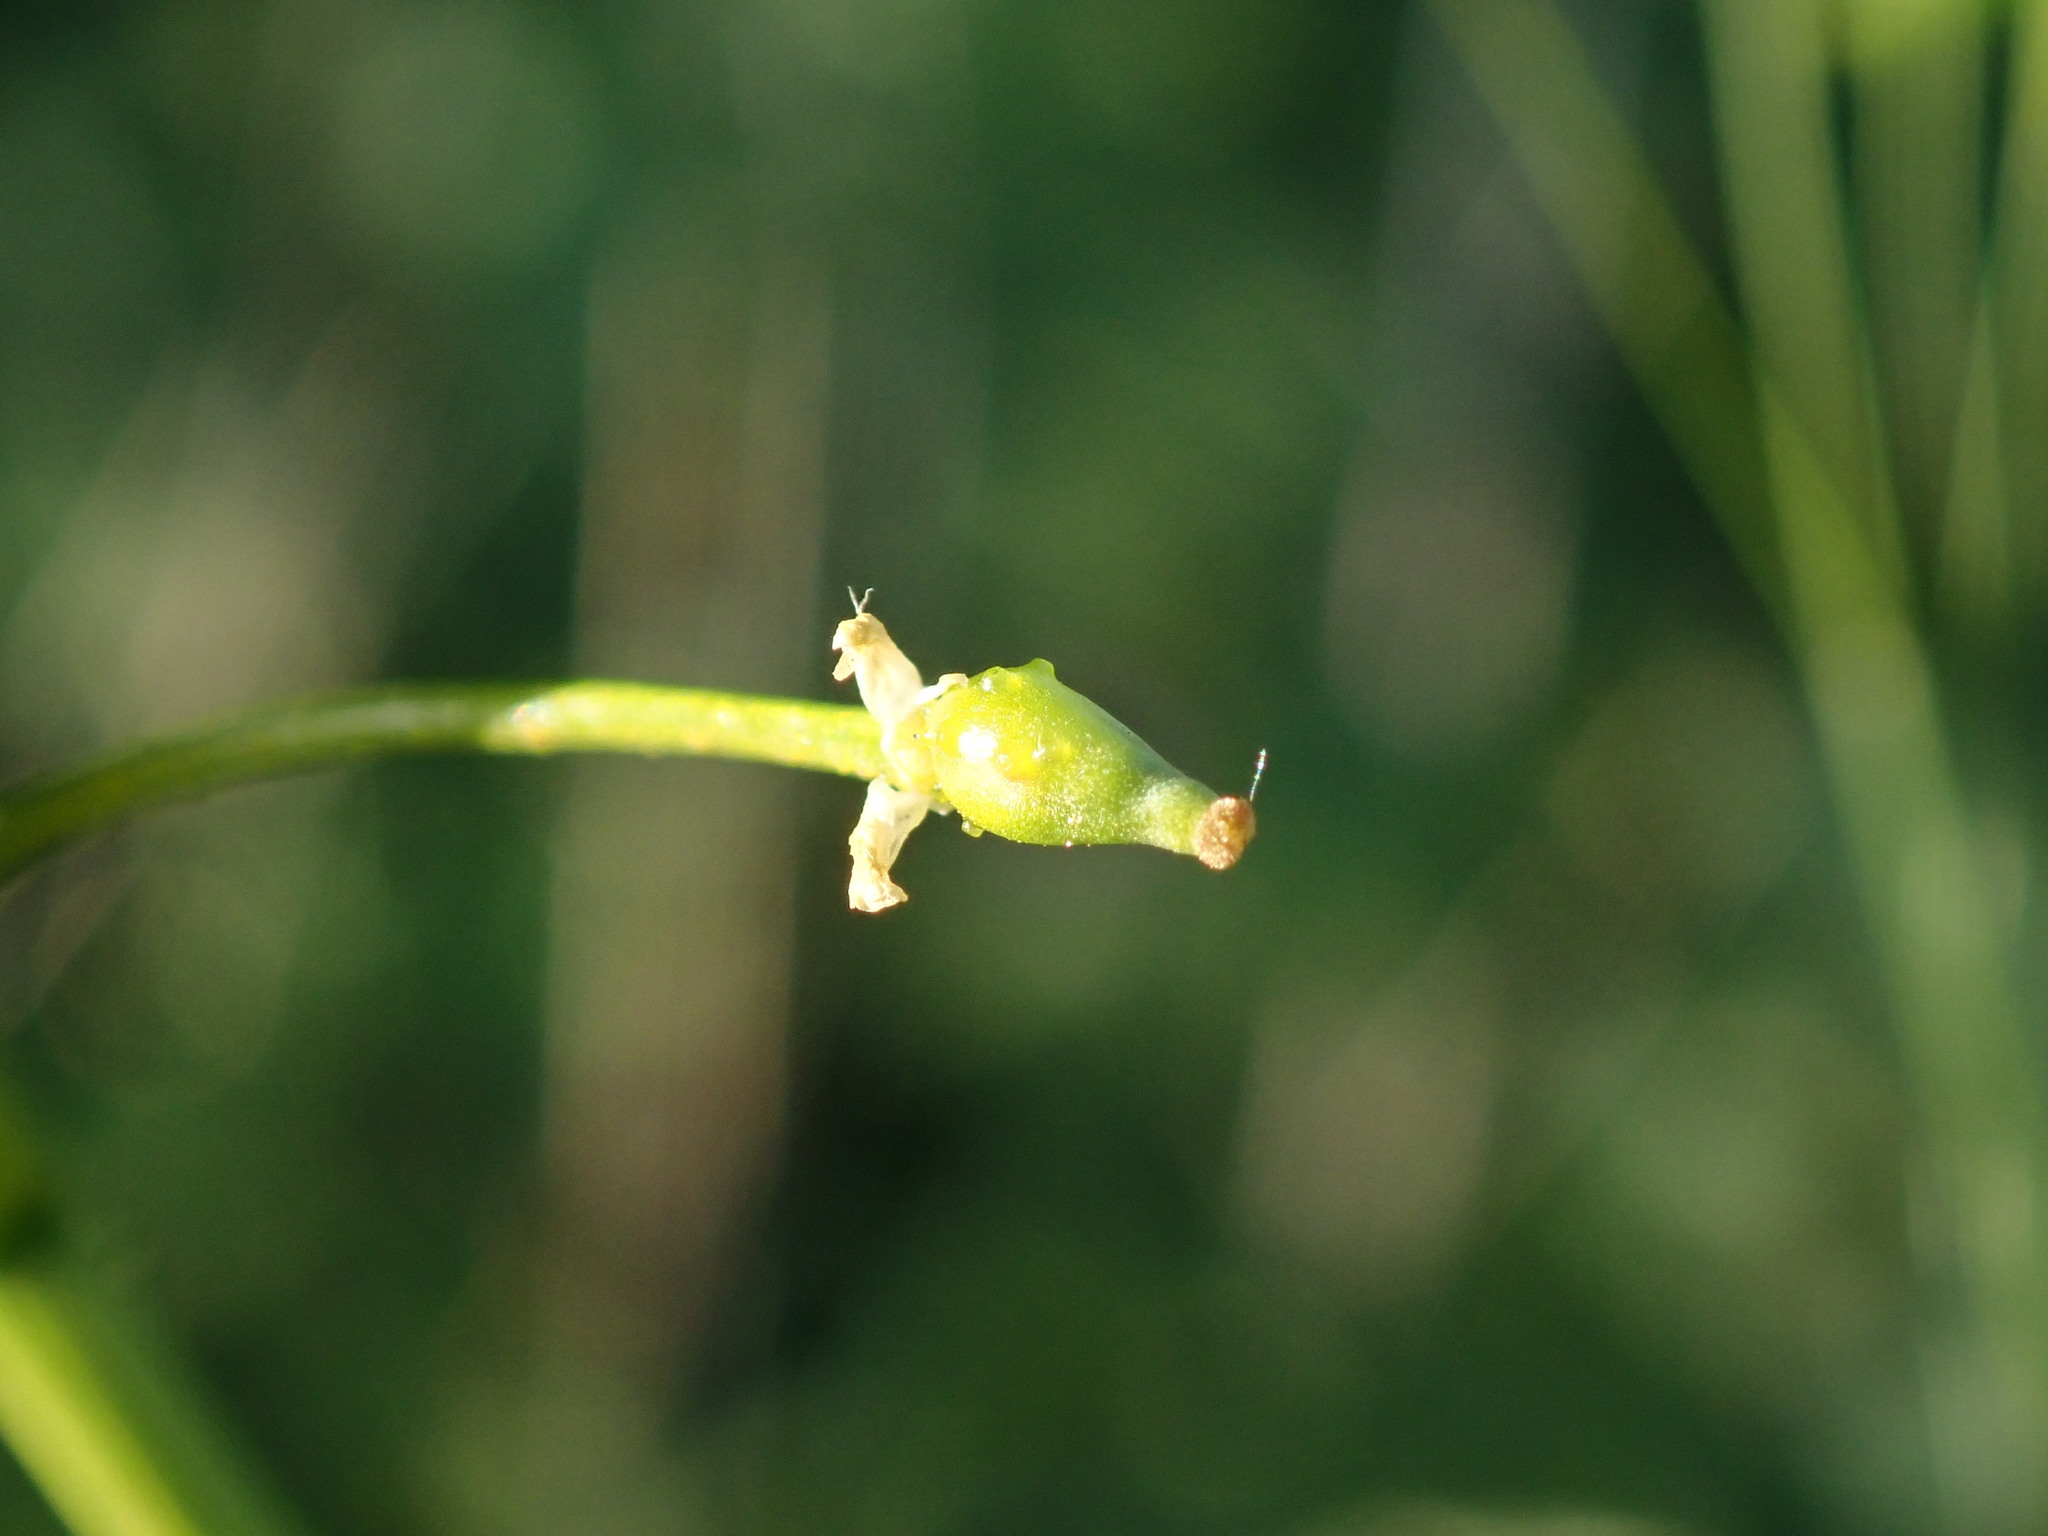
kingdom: Plantae
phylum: Tracheophyta
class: Magnoliopsida
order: Brassicales
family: Brassicaceae
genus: Bunias
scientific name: Bunias orientalis
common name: Warty-cabbage
